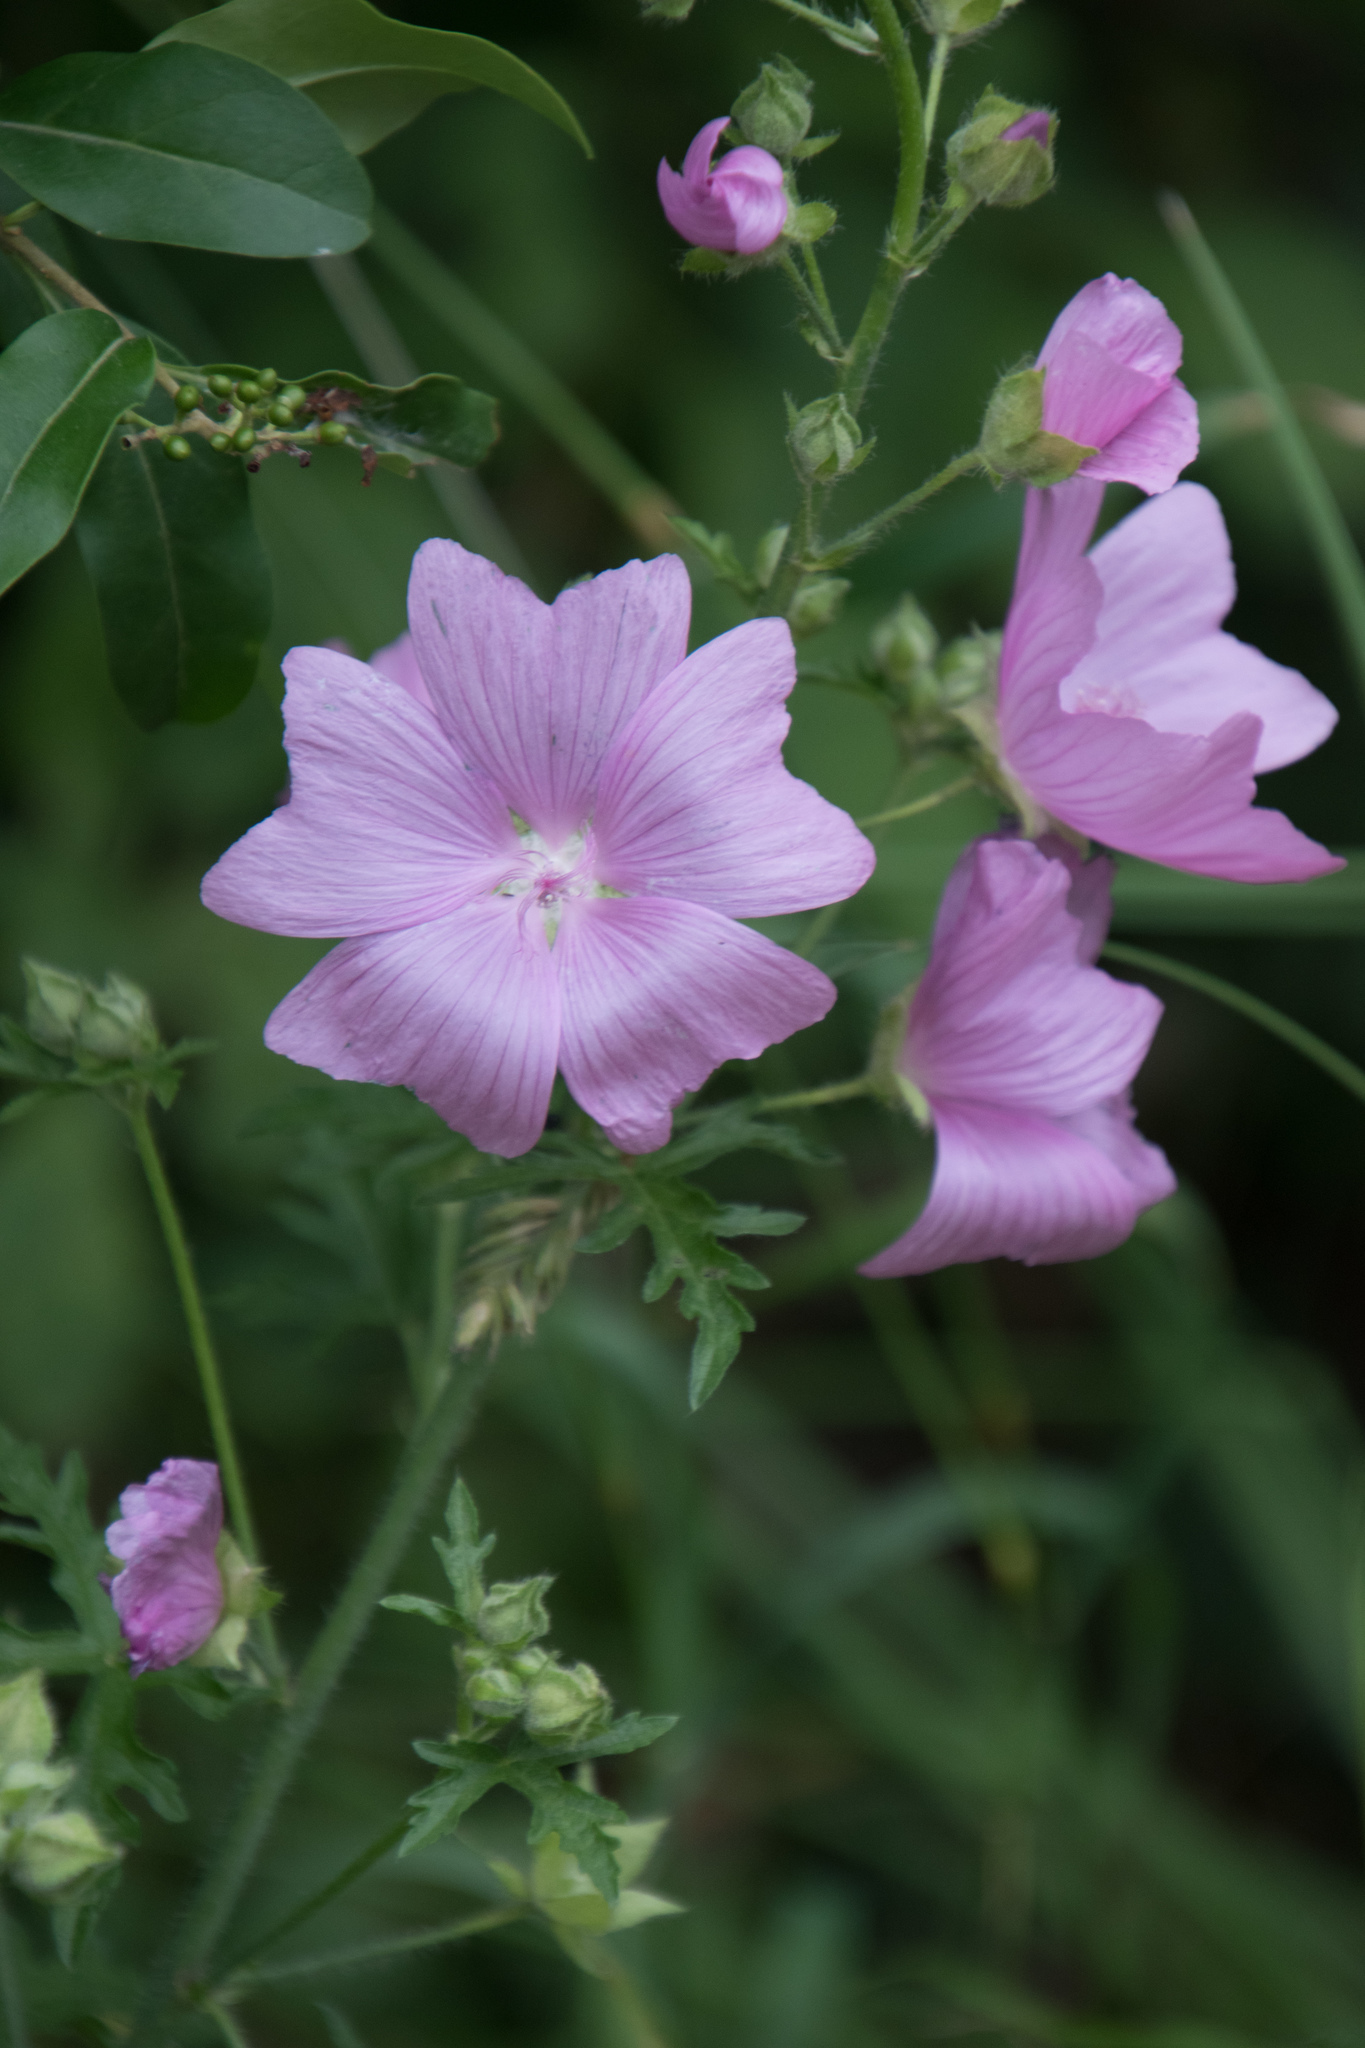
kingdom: Plantae
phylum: Tracheophyta
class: Magnoliopsida
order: Malvales
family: Malvaceae
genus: Malva
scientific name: Malva alcea
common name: Greater musk-mallow
